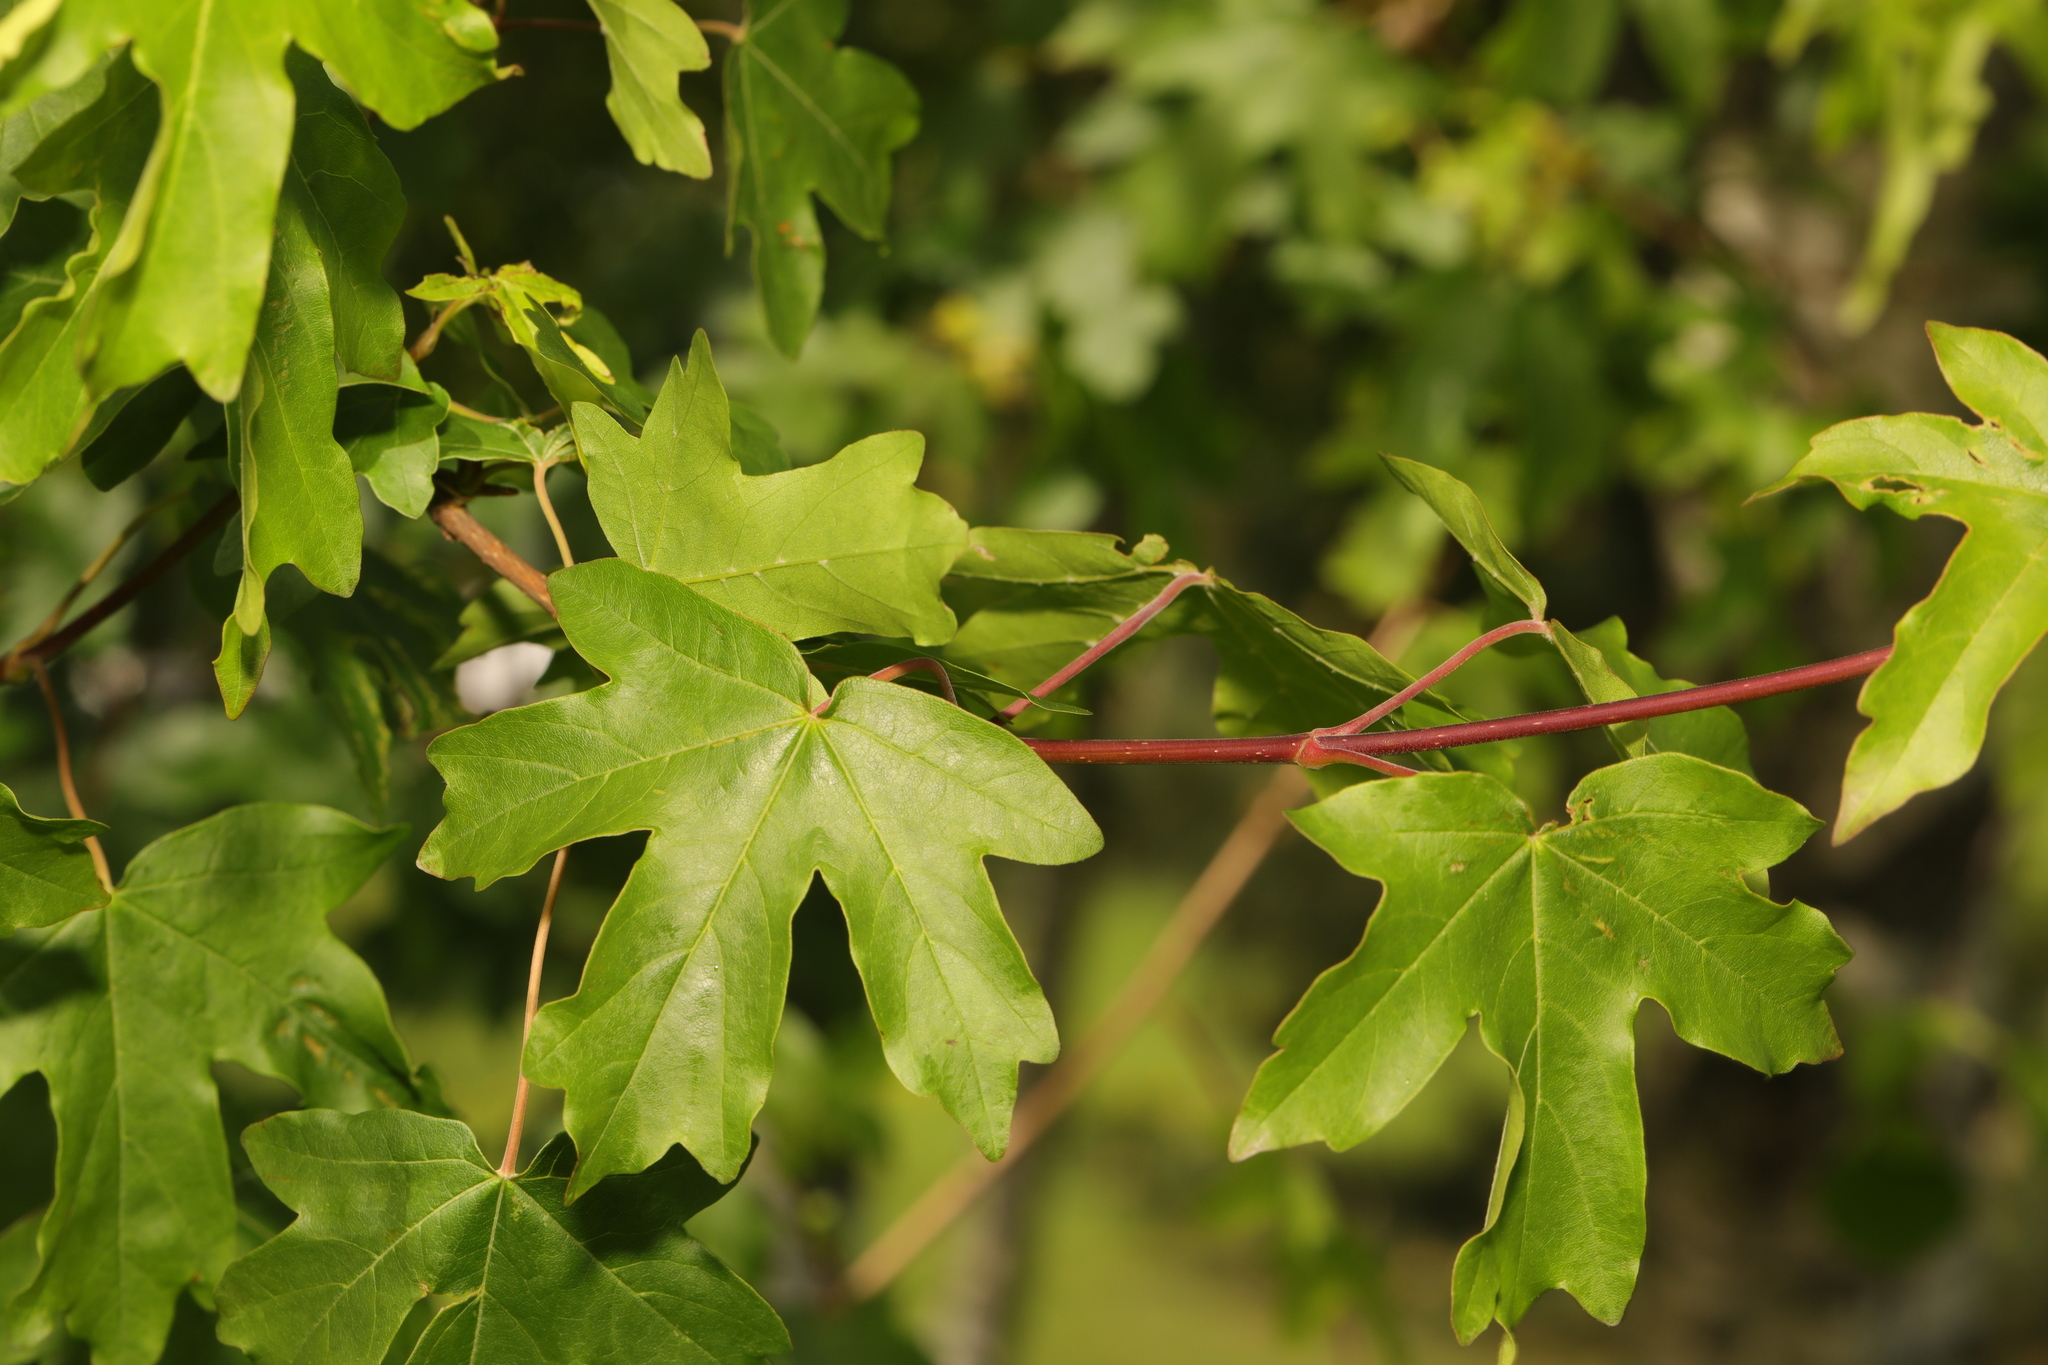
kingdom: Plantae
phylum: Tracheophyta
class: Magnoliopsida
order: Sapindales
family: Sapindaceae
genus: Acer
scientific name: Acer campestre
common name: Field maple
